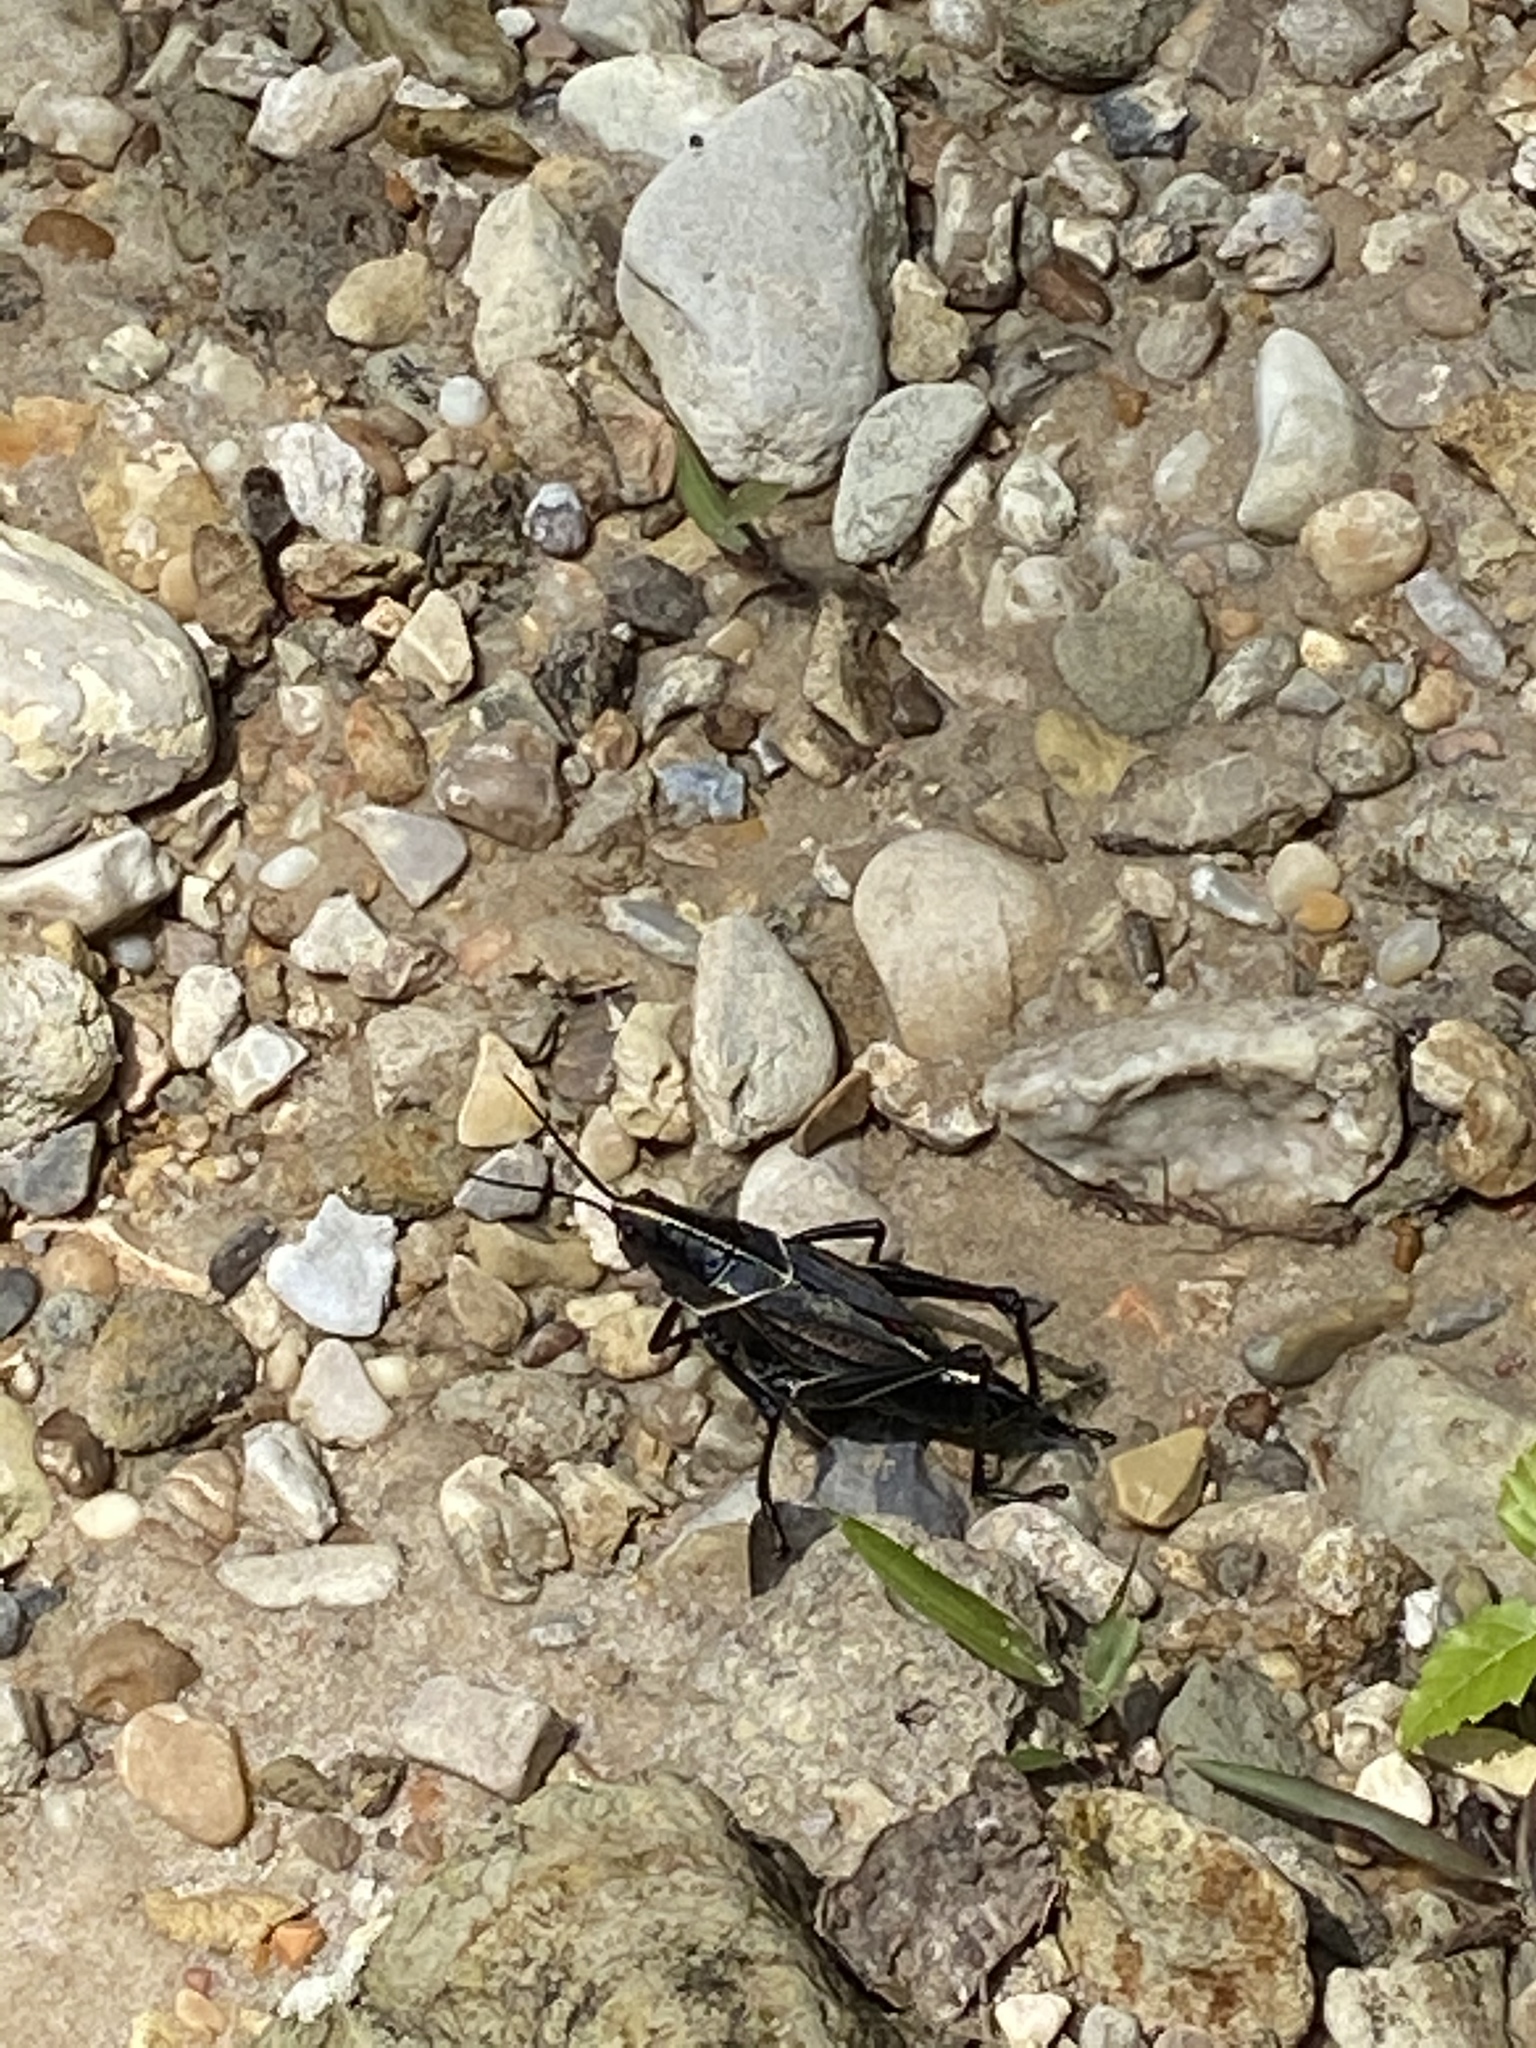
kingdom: Animalia
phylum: Arthropoda
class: Insecta
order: Orthoptera
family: Romaleidae
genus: Romalea
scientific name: Romalea microptera
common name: Eastern lubber grasshopper
